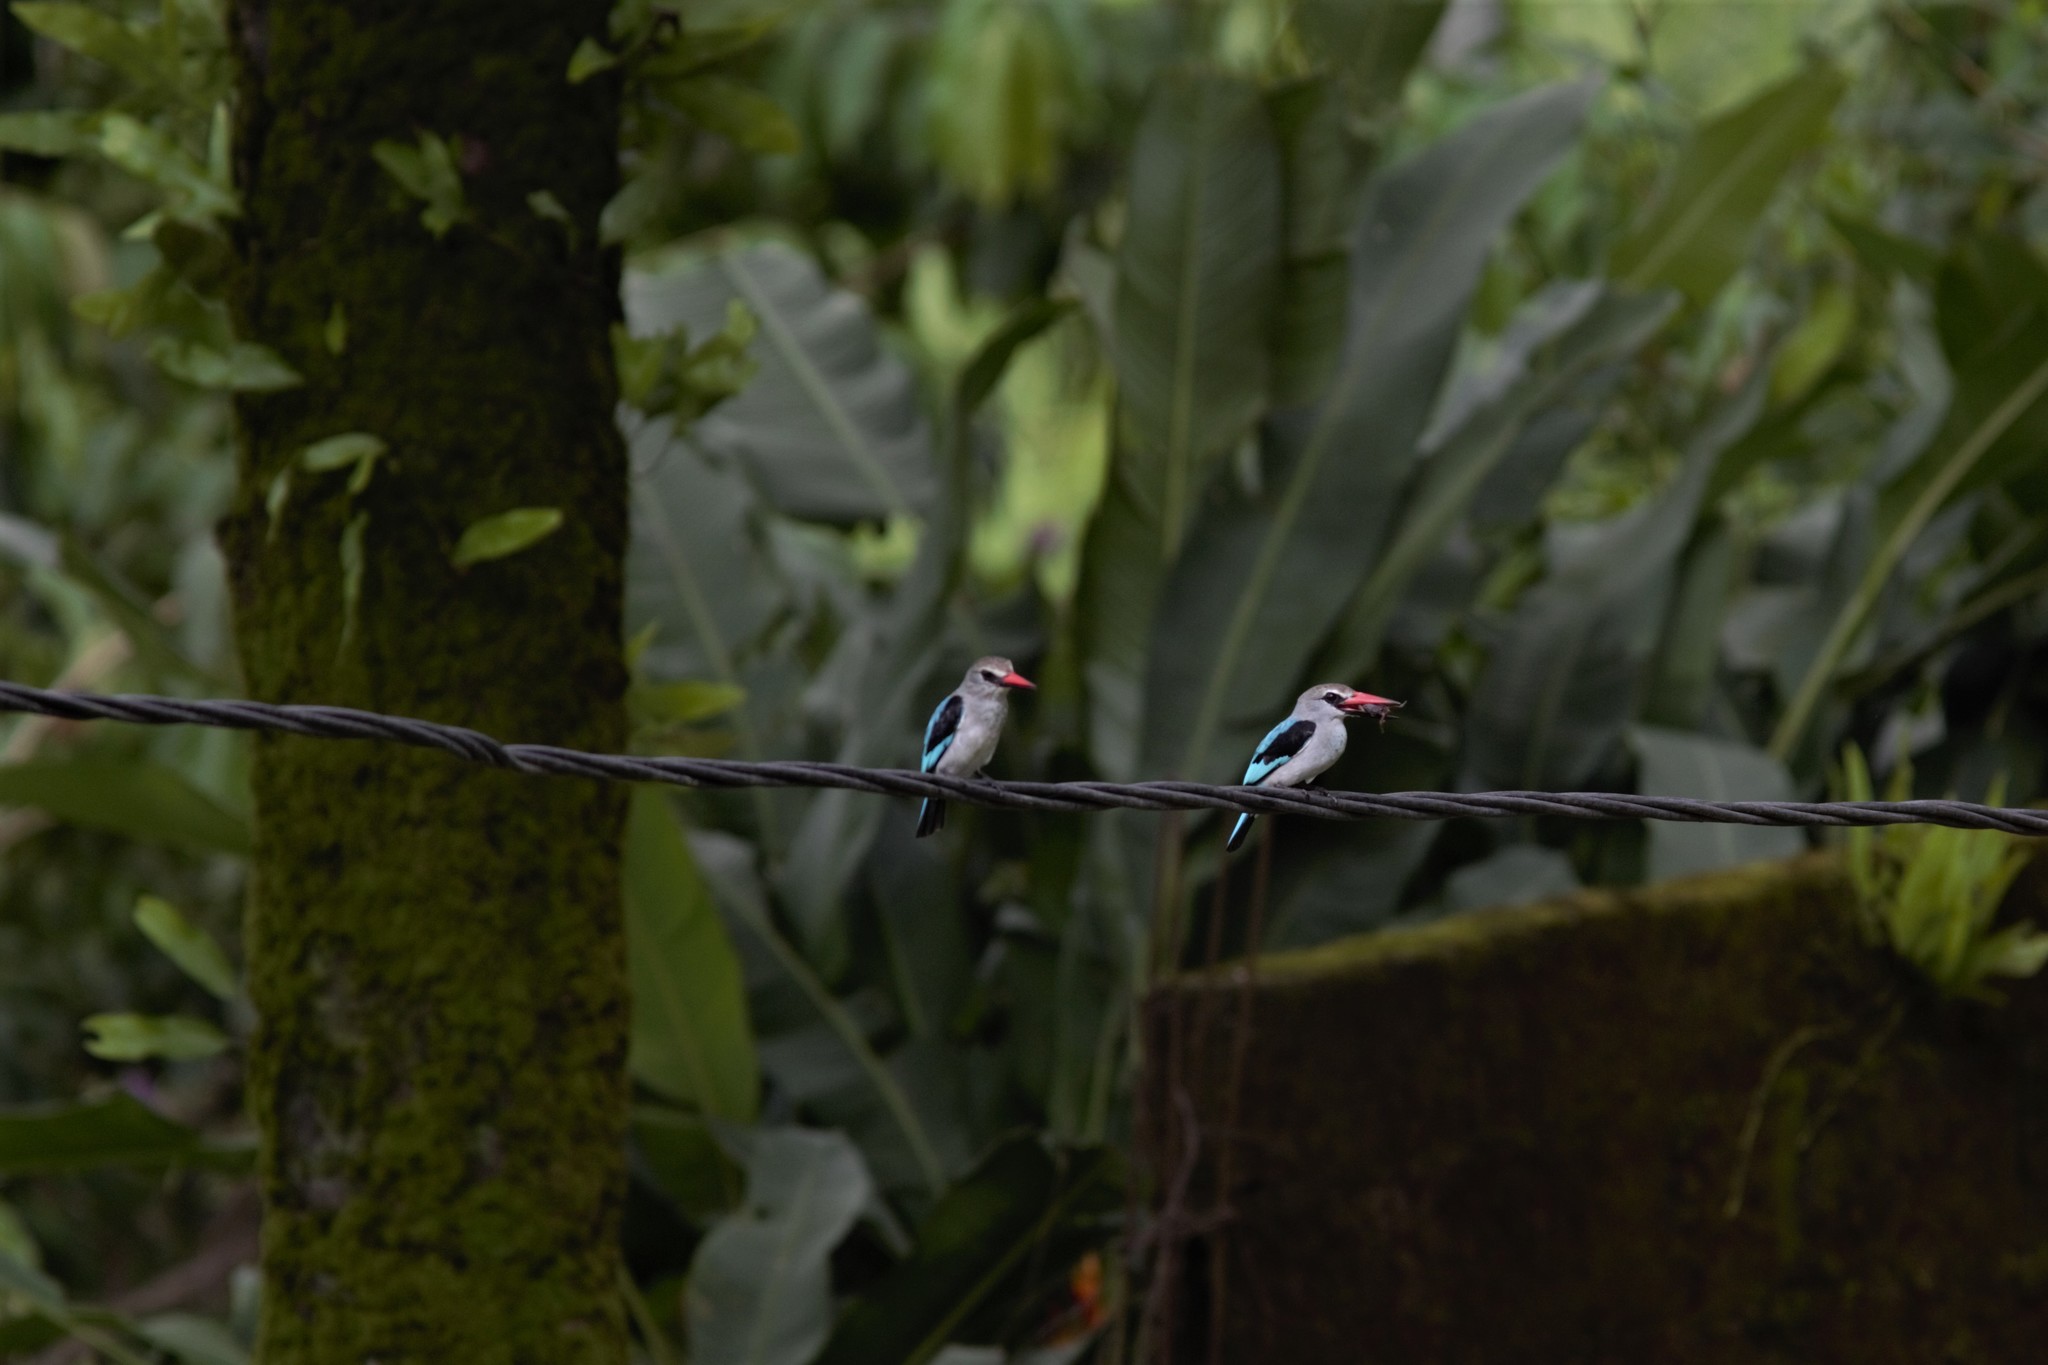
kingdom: Animalia
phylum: Chordata
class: Aves
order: Coraciiformes
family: Alcedinidae
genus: Halcyon
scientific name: Halcyon senegalensis
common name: Woodland kingfisher
